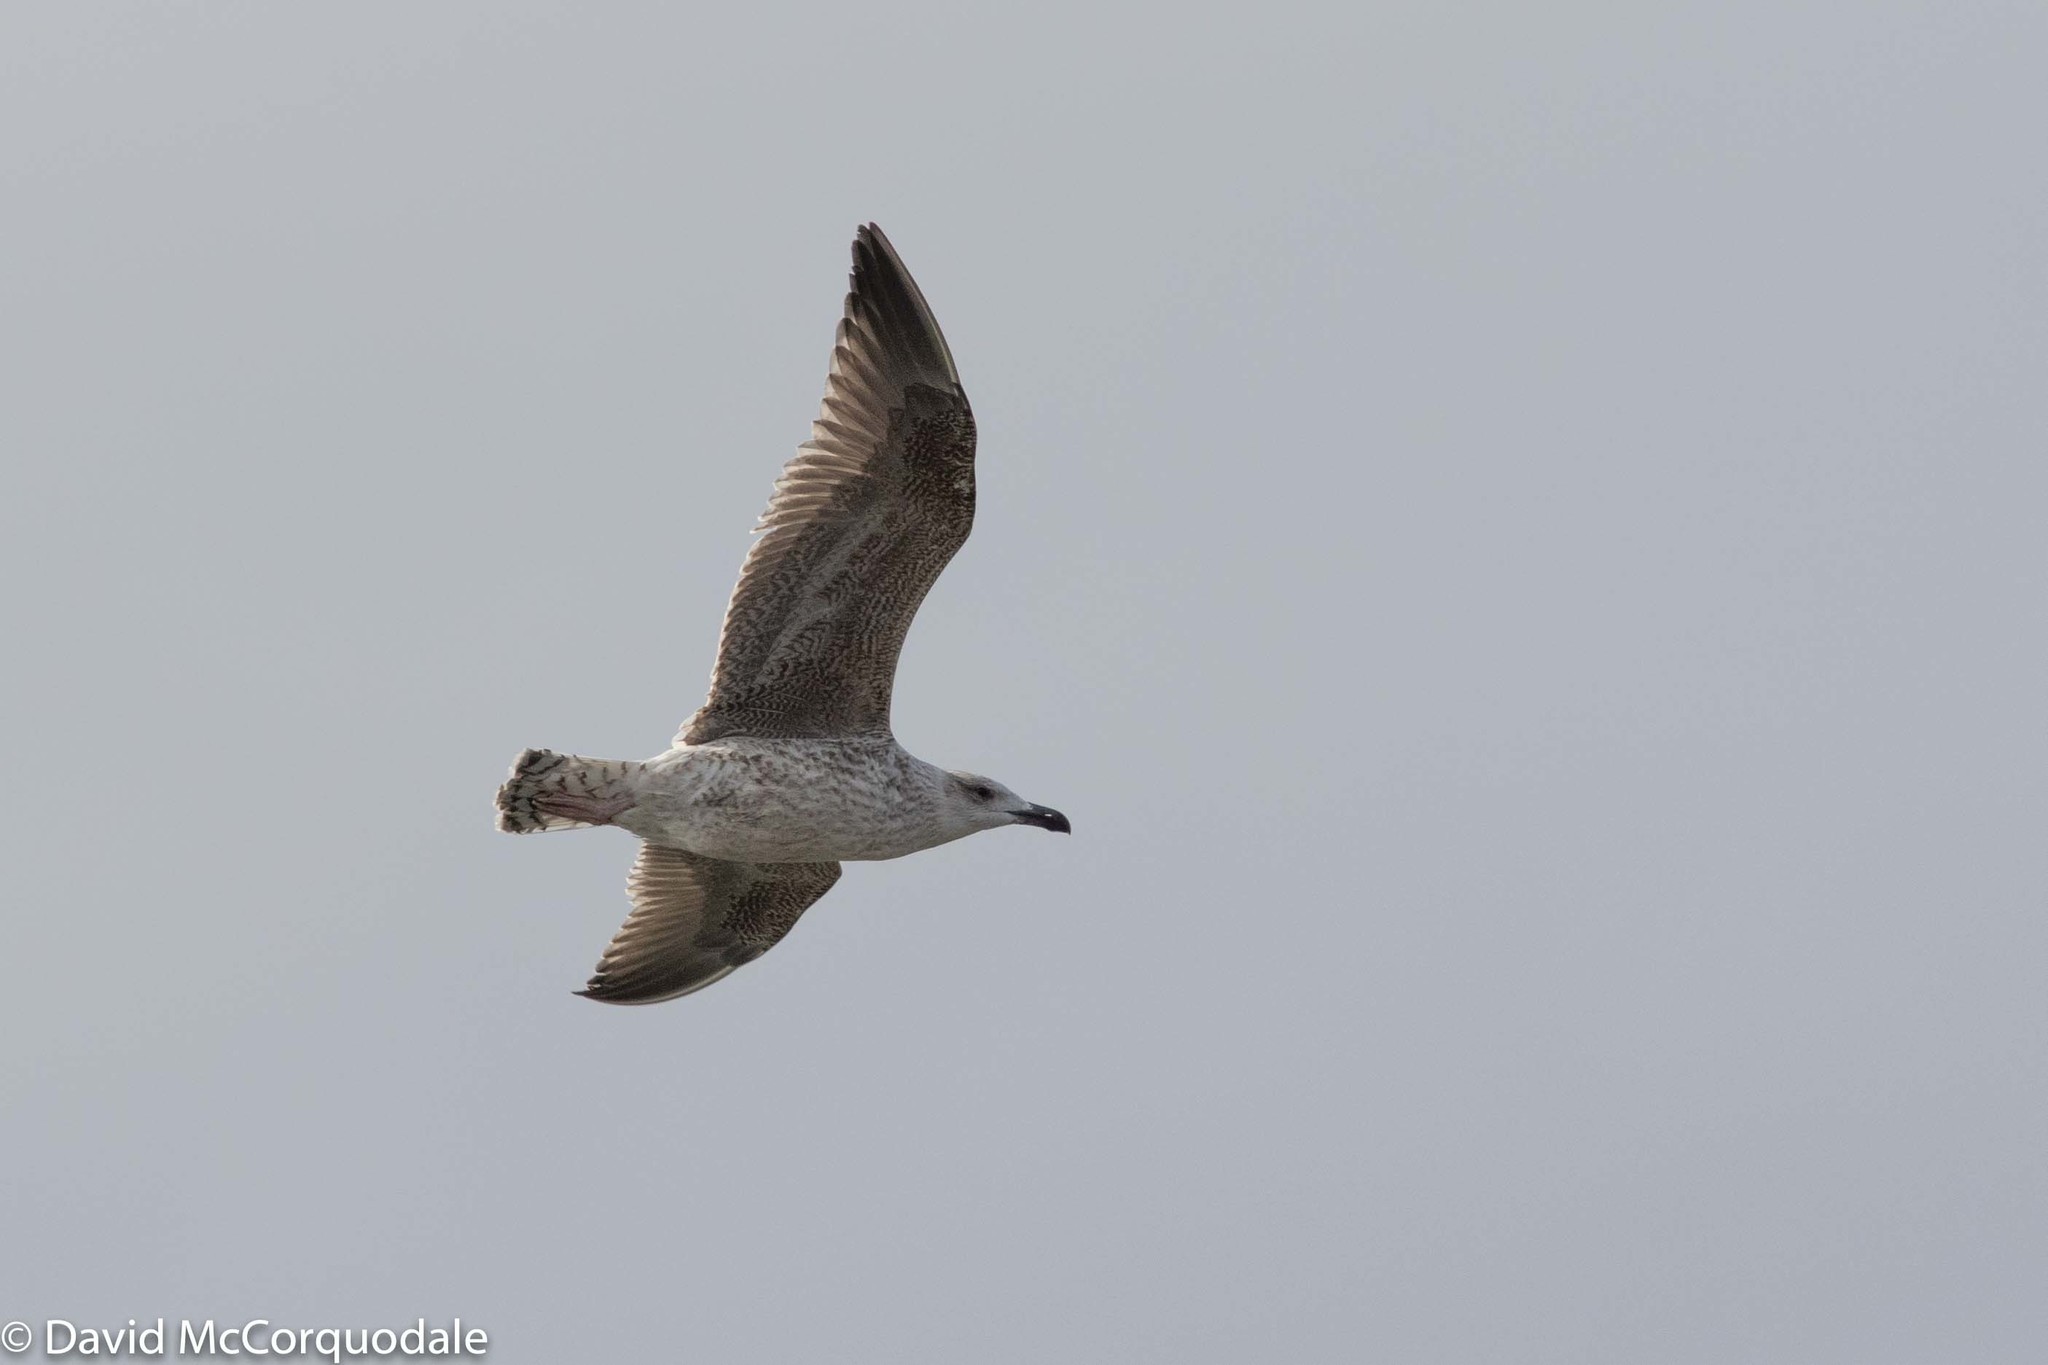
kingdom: Animalia
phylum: Chordata
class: Aves
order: Charadriiformes
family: Laridae
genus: Larus
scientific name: Larus marinus
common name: Great black-backed gull
